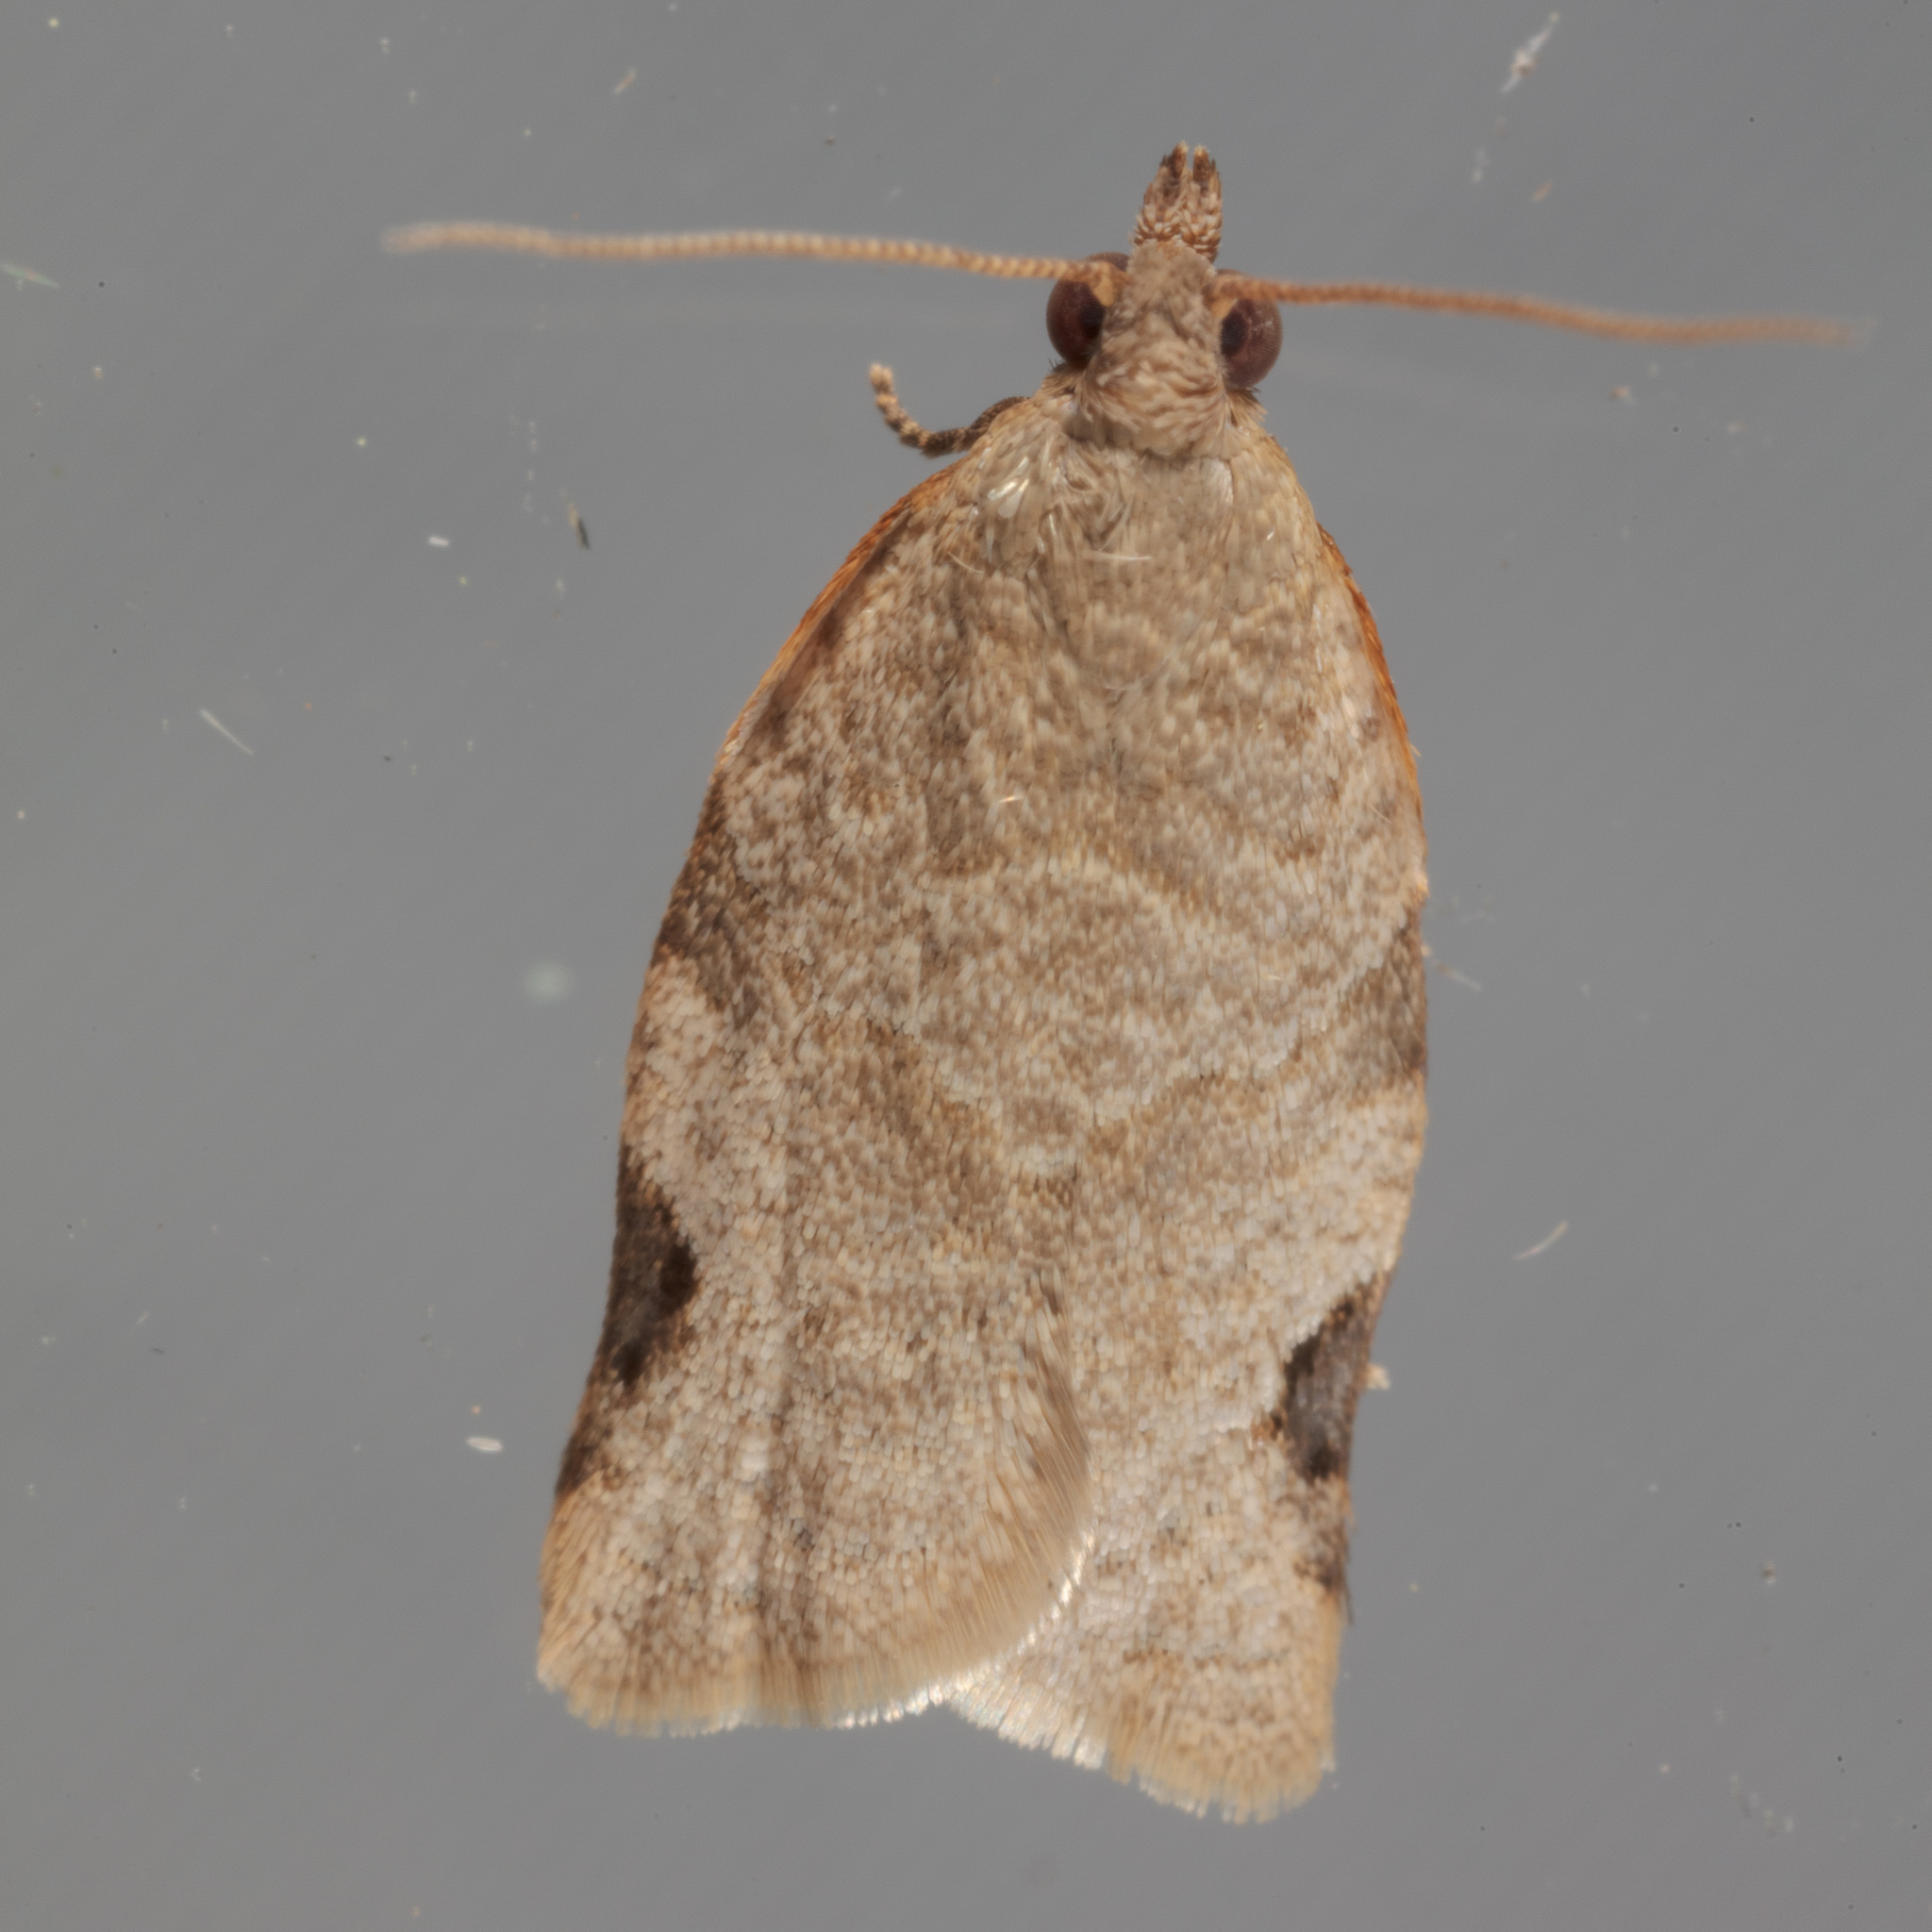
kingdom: Animalia
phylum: Arthropoda
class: Insecta
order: Lepidoptera
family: Tortricidae
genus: Clepsis
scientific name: Clepsis virescana
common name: Greenish apple moth
